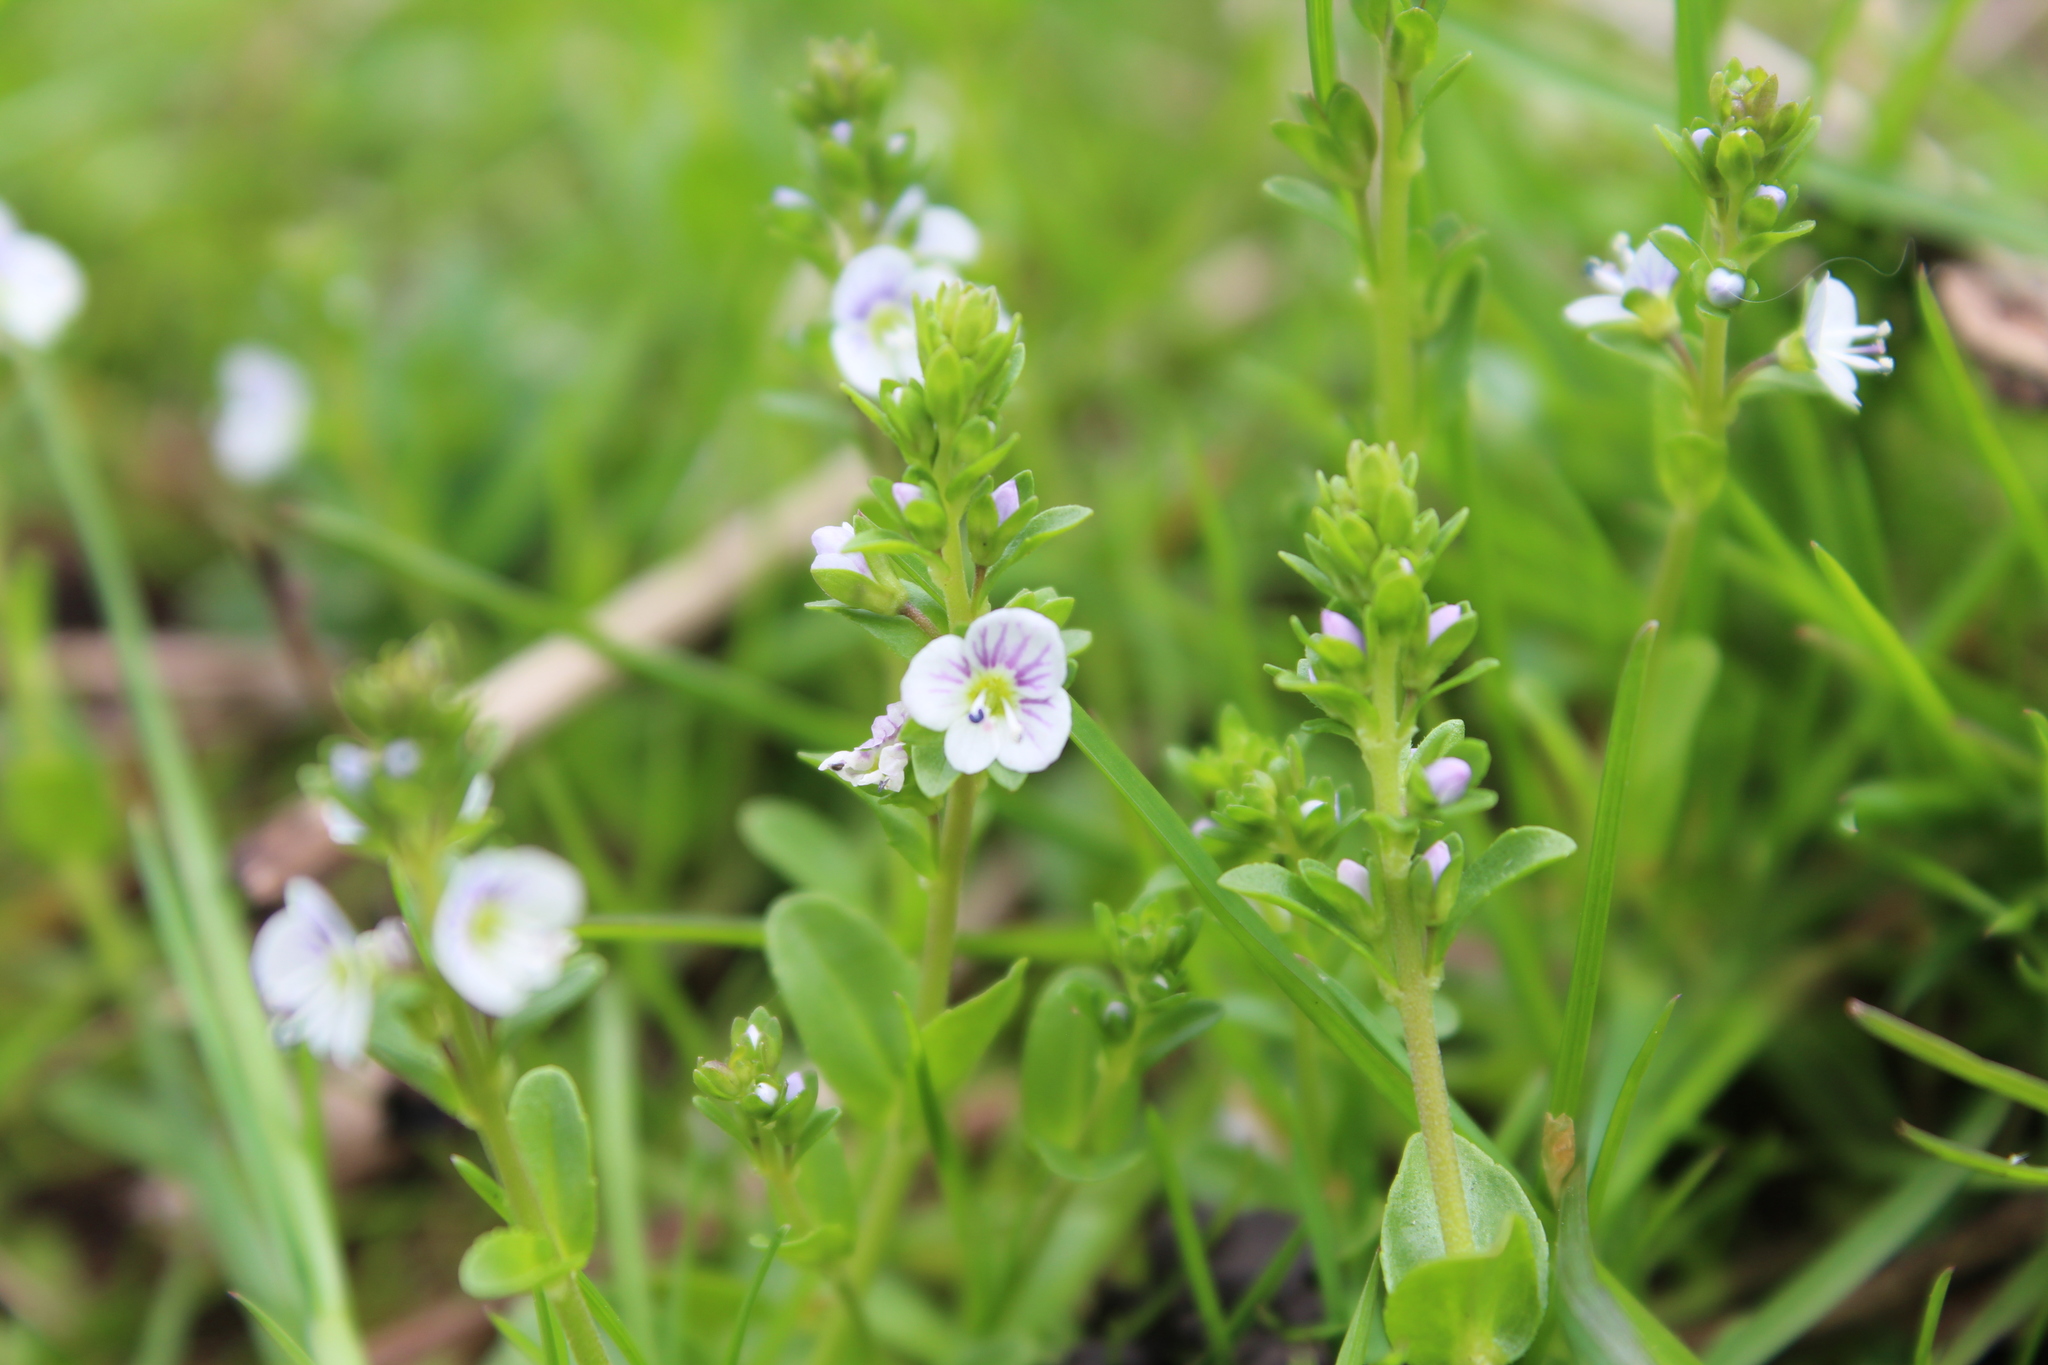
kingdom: Plantae
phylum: Tracheophyta
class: Magnoliopsida
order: Lamiales
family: Plantaginaceae
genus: Veronica
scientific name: Veronica serpyllifolia
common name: Thyme-leaved speedwell
